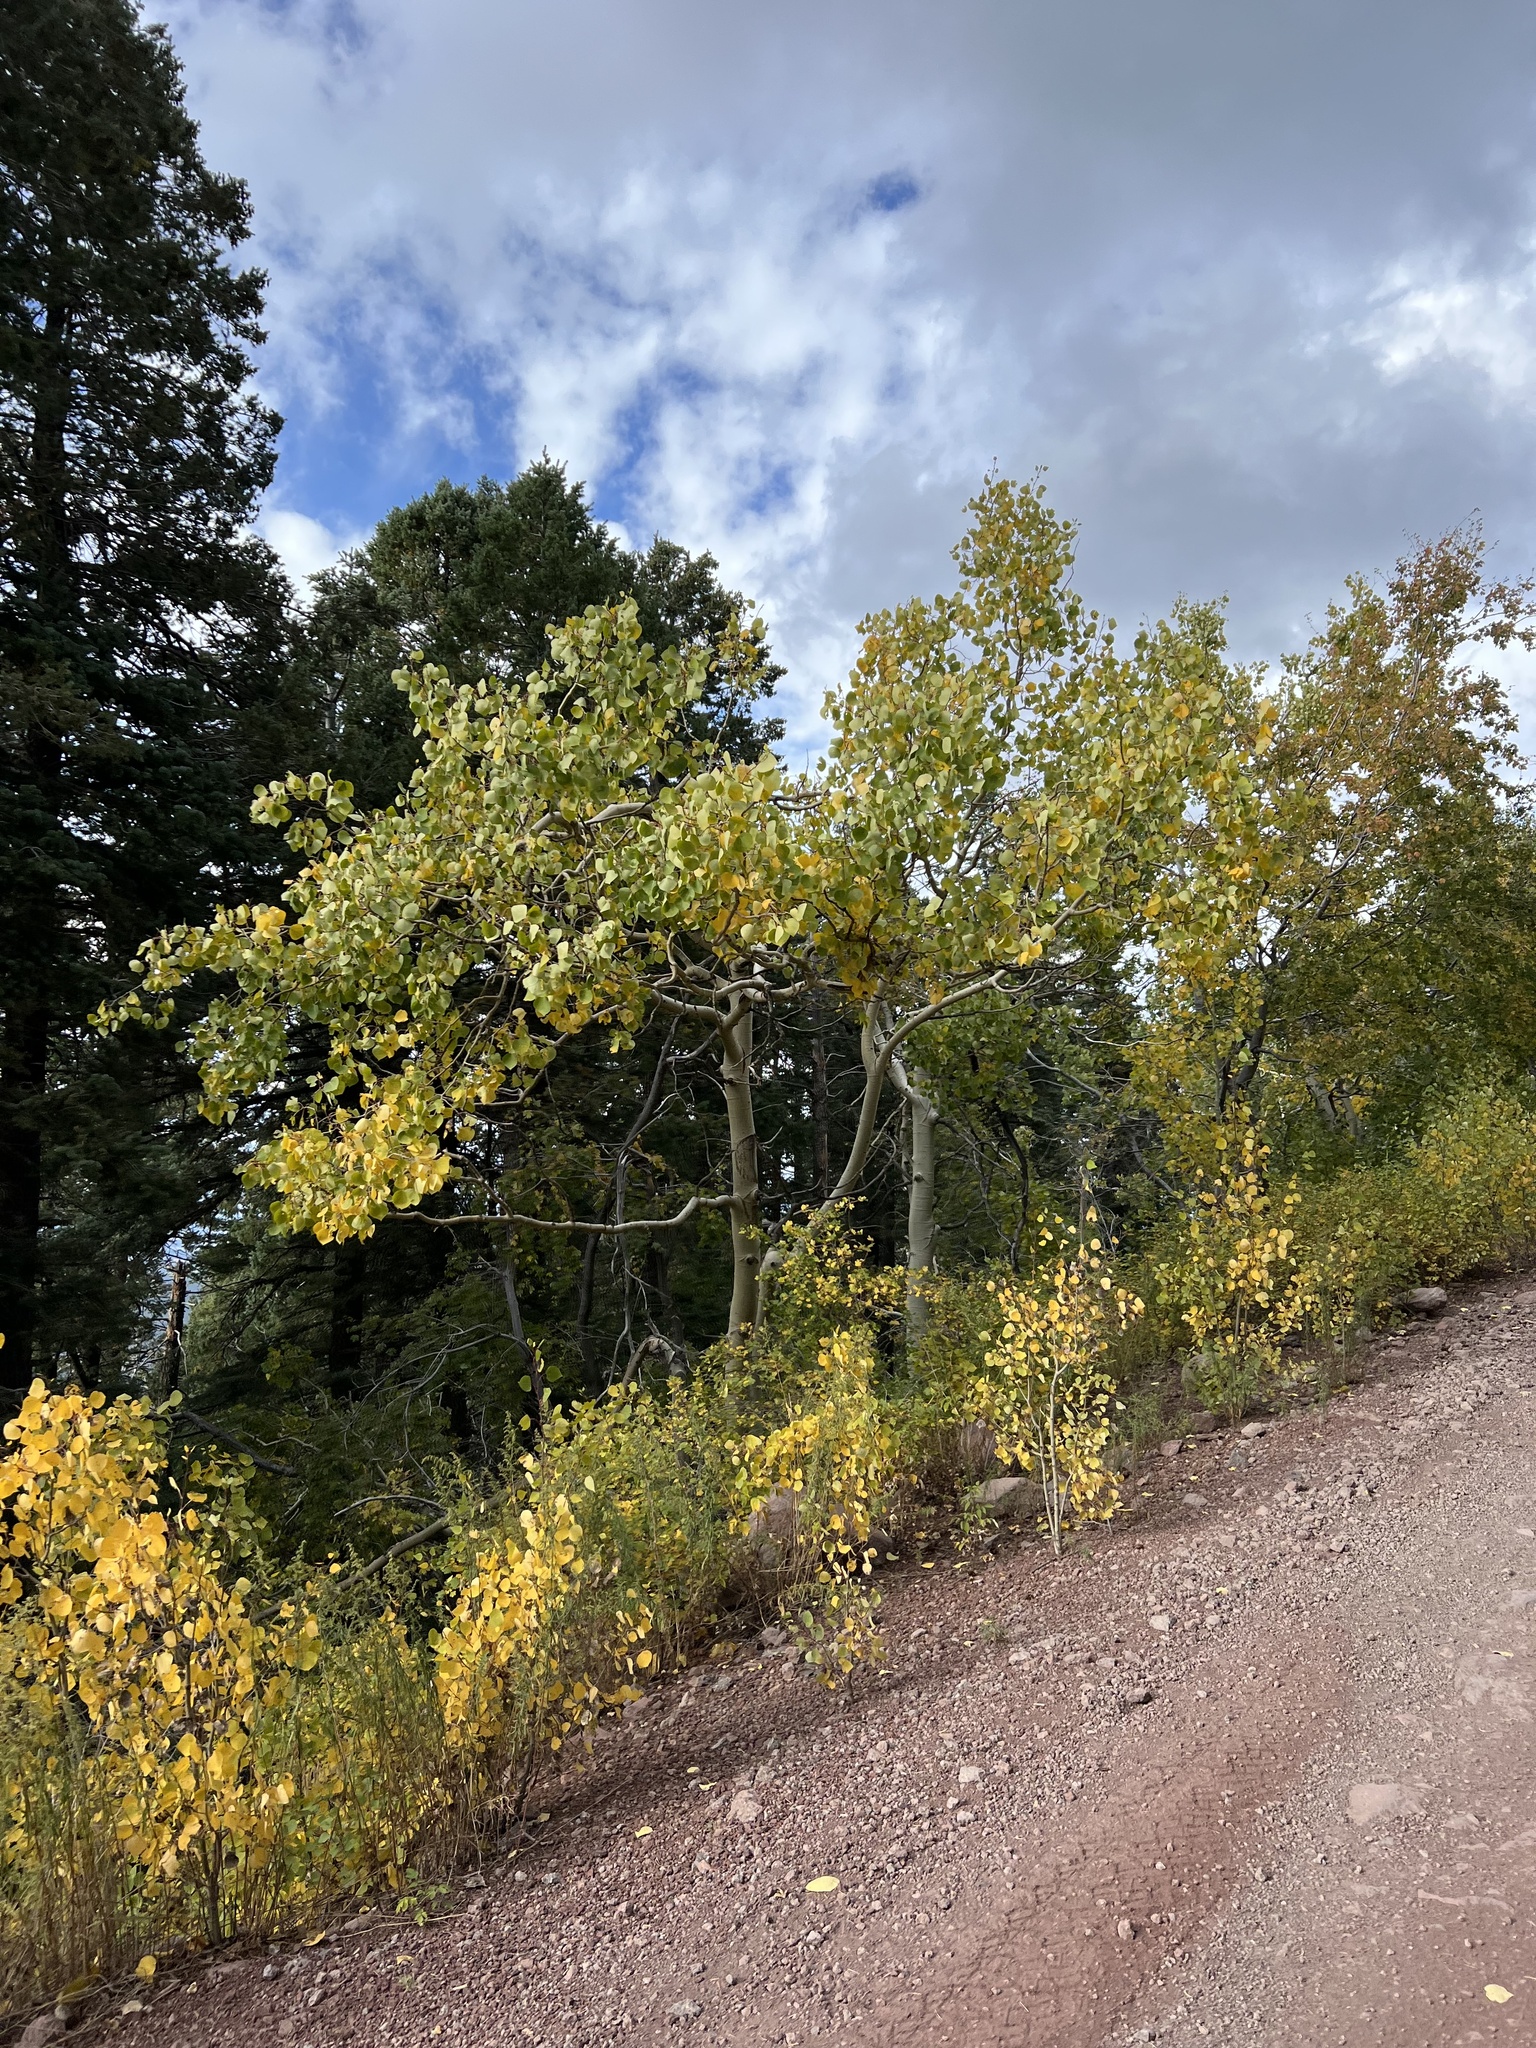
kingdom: Plantae
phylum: Tracheophyta
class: Magnoliopsida
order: Malpighiales
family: Salicaceae
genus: Populus
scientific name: Populus tremuloides
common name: Quaking aspen
